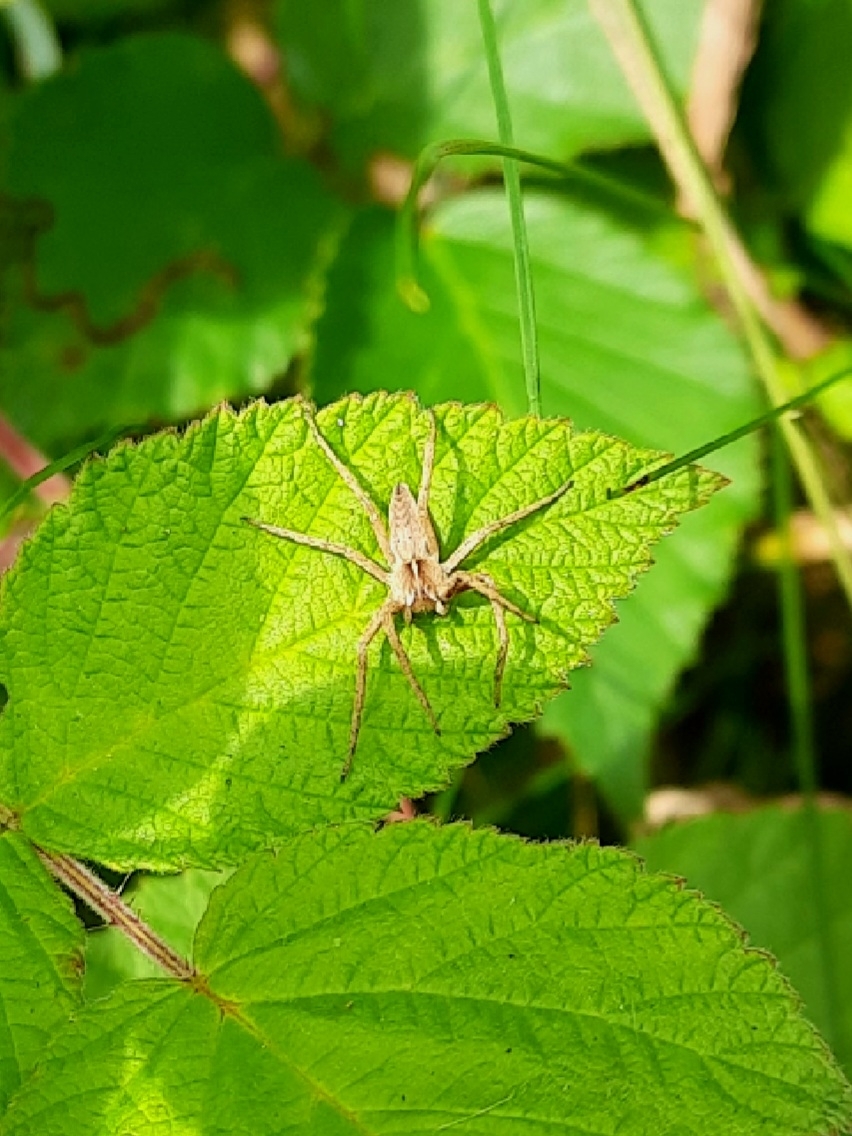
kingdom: Animalia
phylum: Arthropoda
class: Arachnida
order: Araneae
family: Pisauridae
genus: Pisaura
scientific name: Pisaura mirabilis
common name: Tent spider
